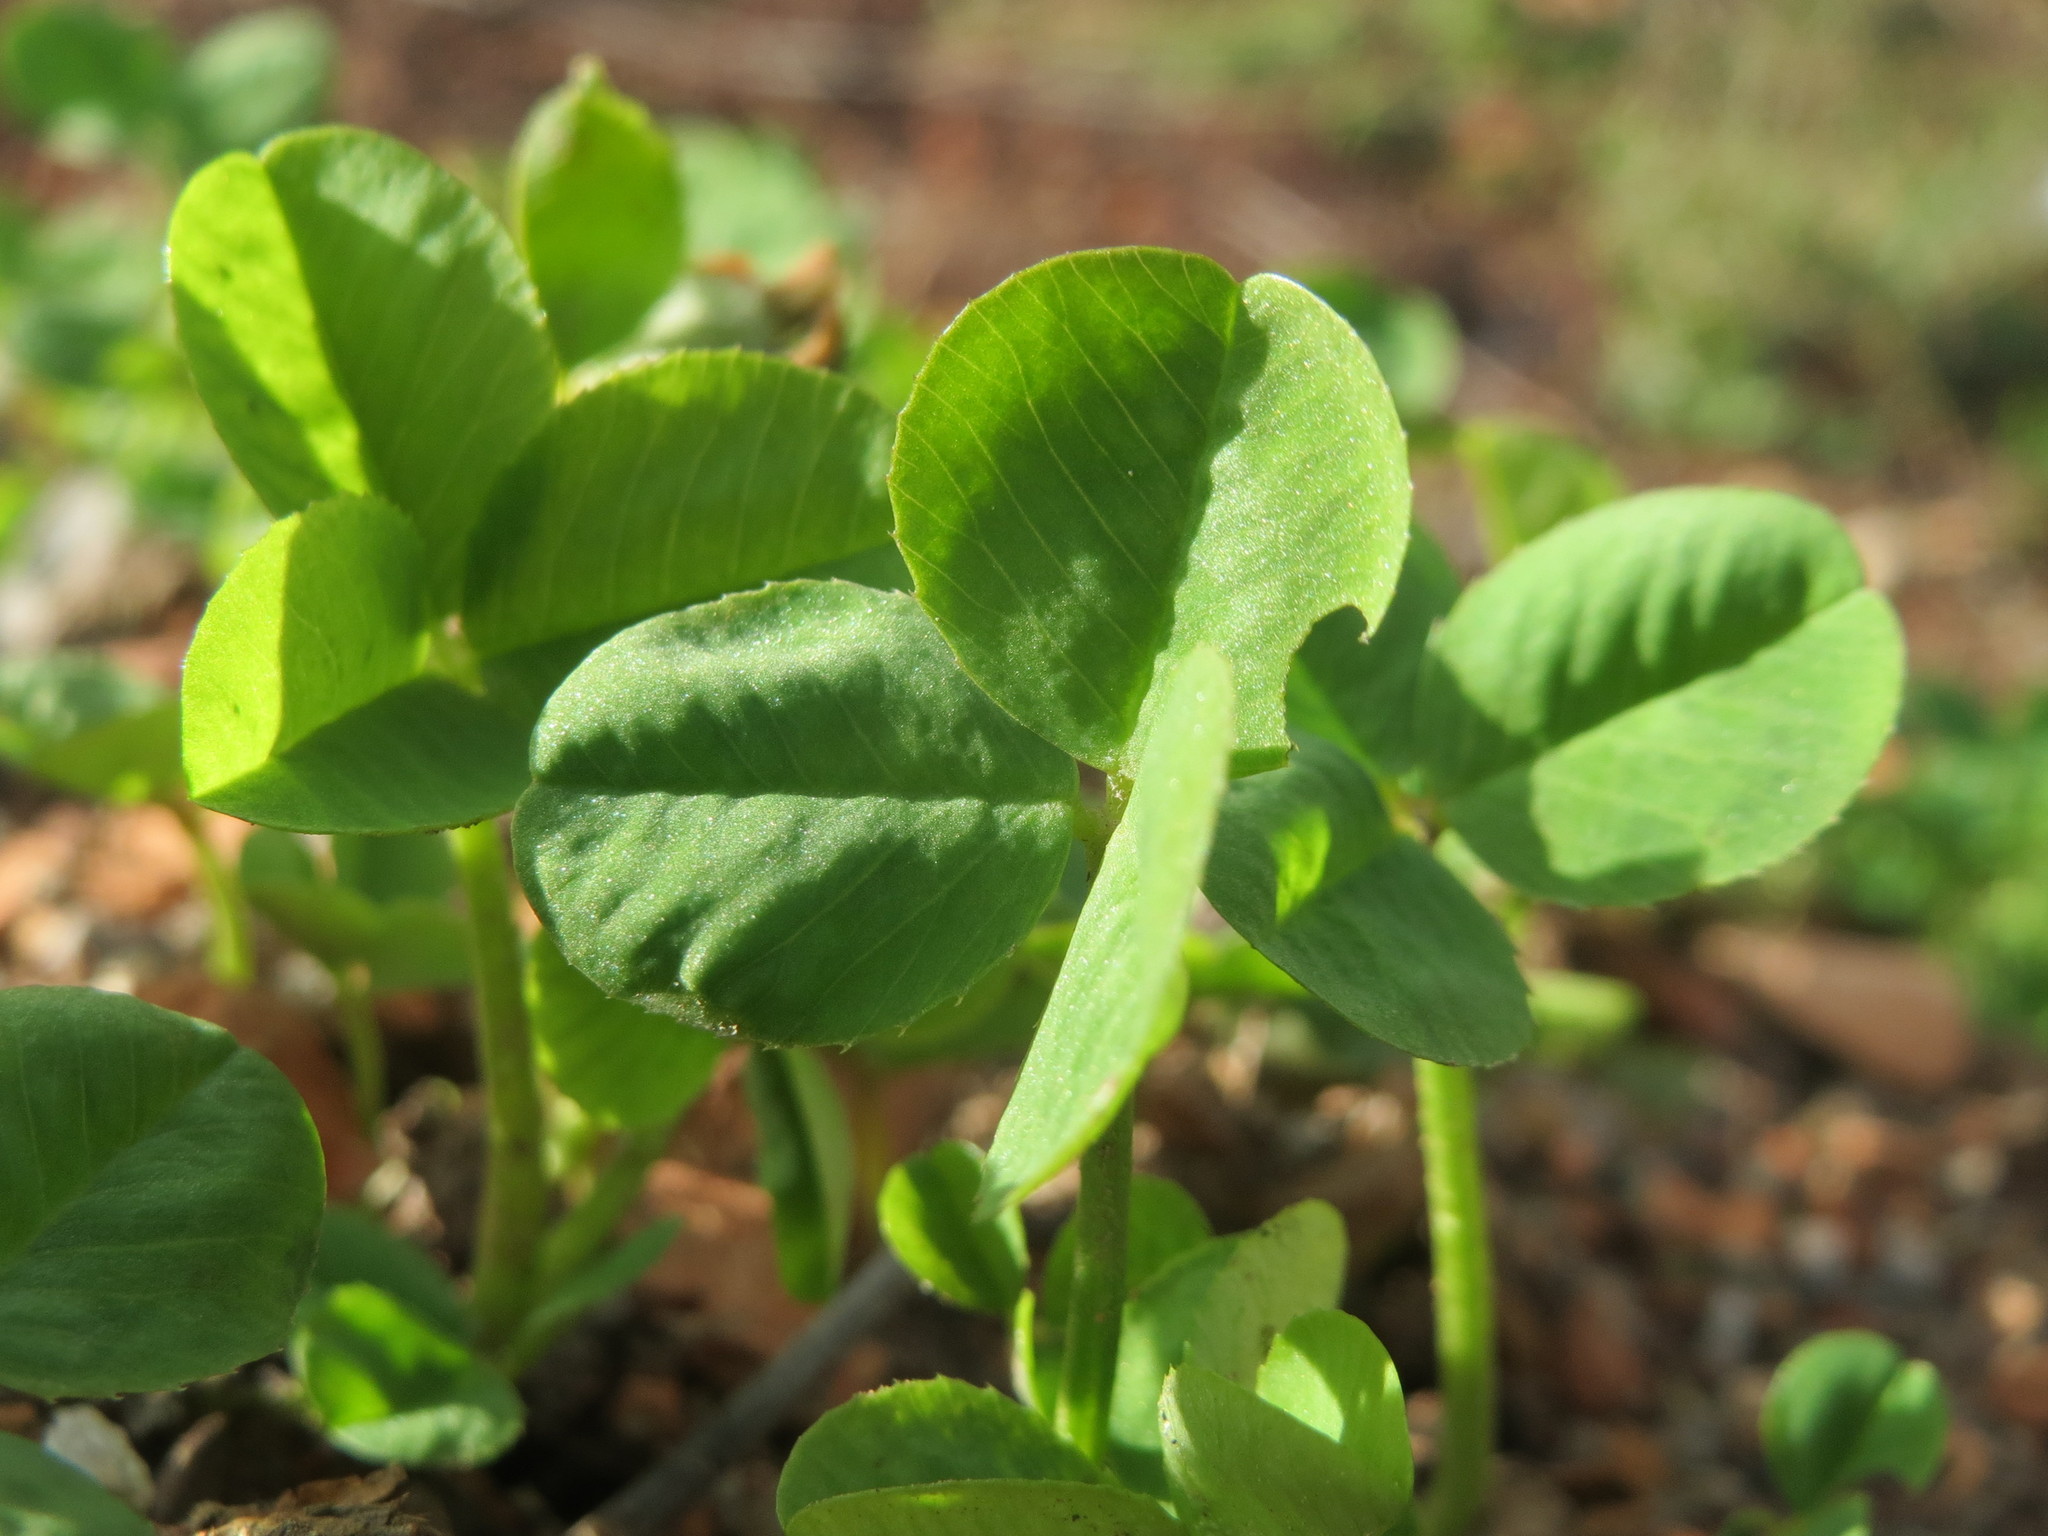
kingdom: Plantae
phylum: Tracheophyta
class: Magnoliopsida
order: Fabales
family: Fabaceae
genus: Trifolium
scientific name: Trifolium repens
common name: White clover
